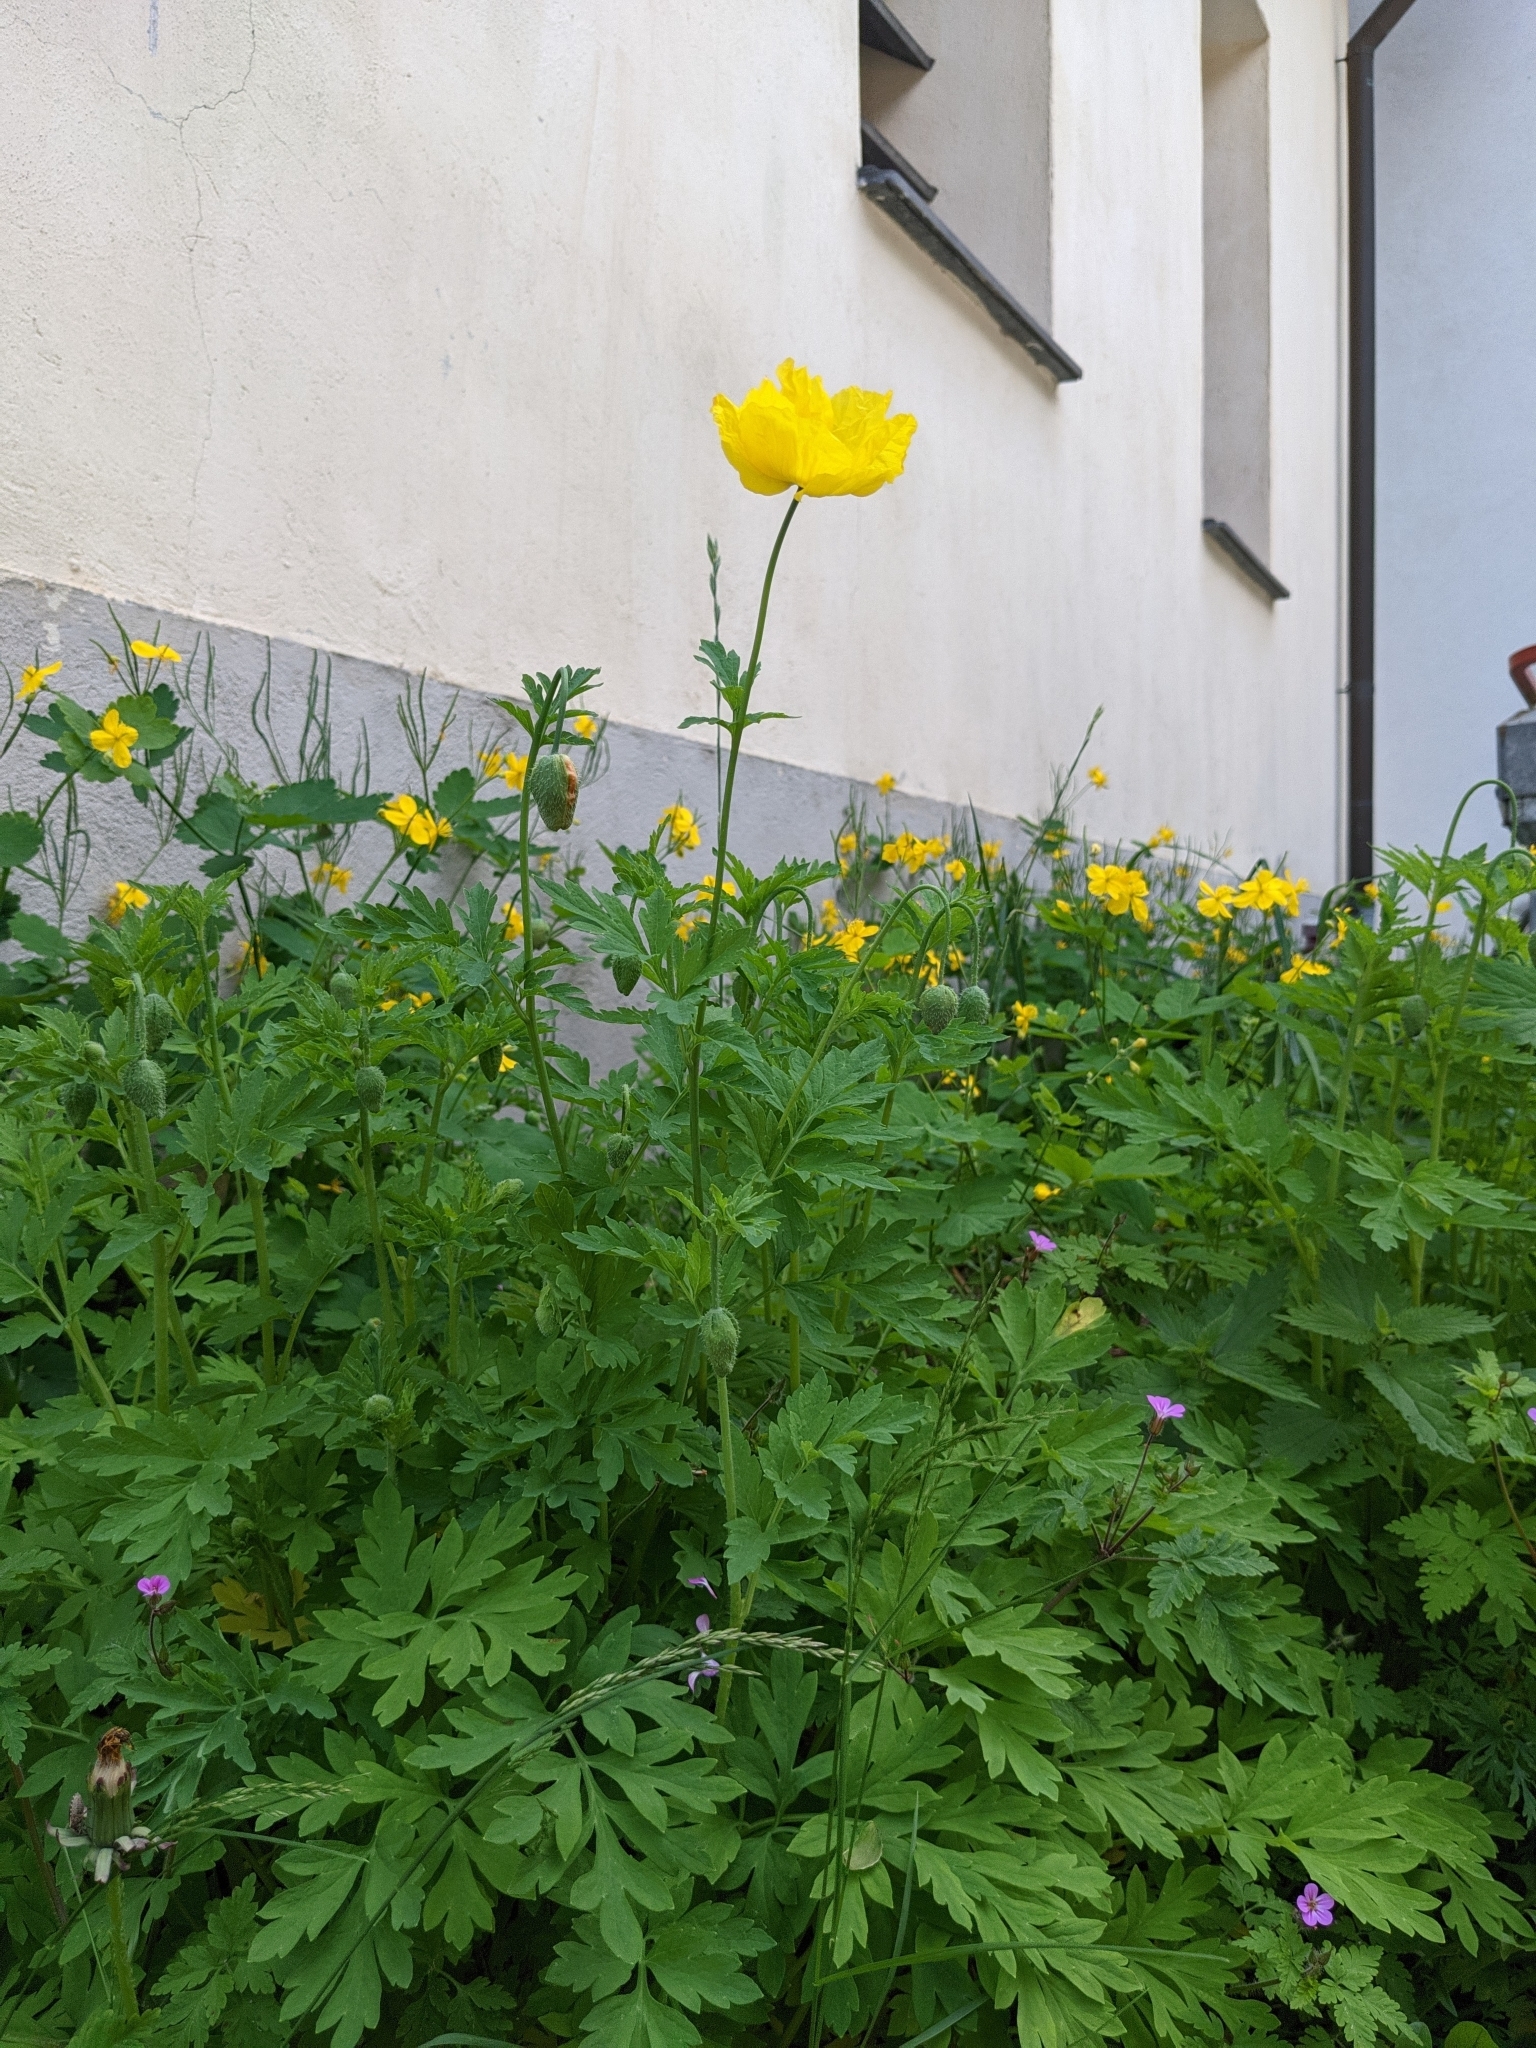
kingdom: Plantae
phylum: Tracheophyta
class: Magnoliopsida
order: Ranunculales
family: Papaveraceae
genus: Papaver
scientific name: Papaver cambricum
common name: Poppy
